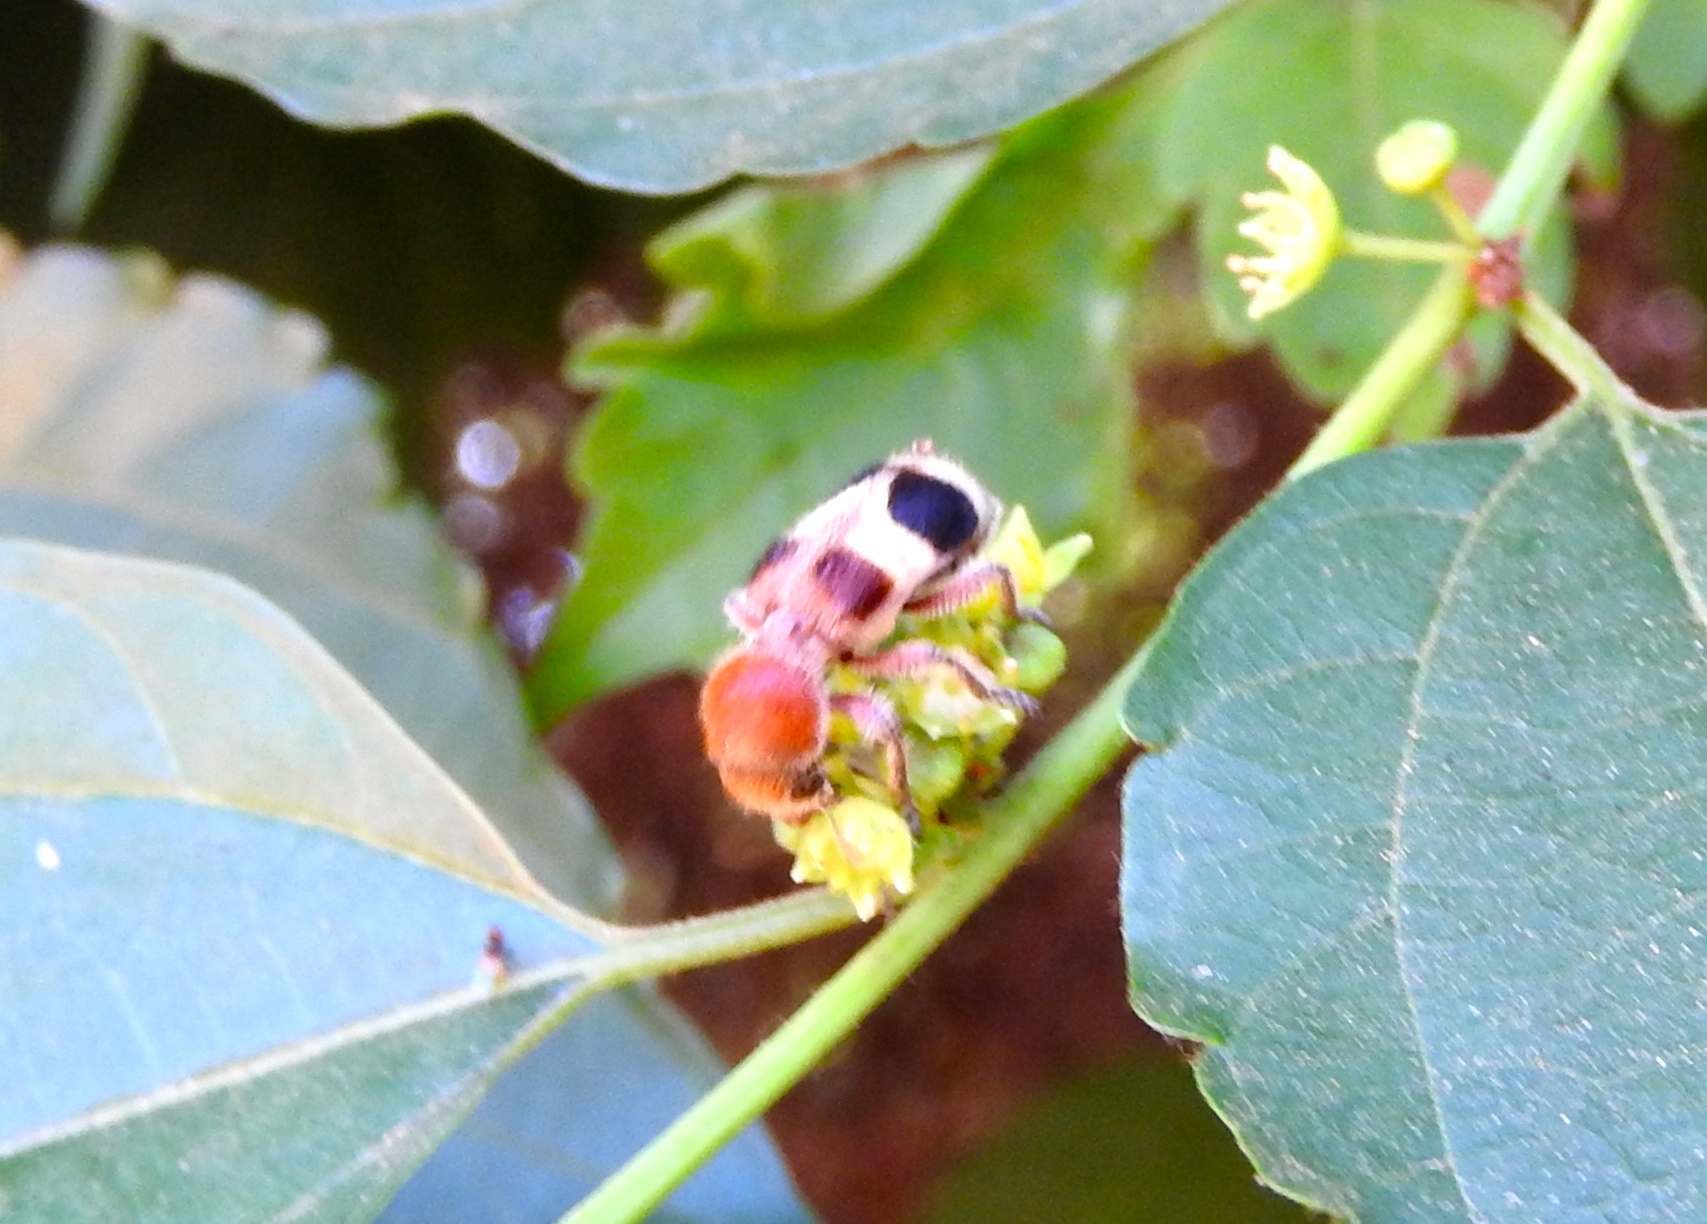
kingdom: Animalia
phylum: Arthropoda
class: Insecta
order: Coleoptera
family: Cleridae
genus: Enoclerus
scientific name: Enoclerus quadriguttatus
